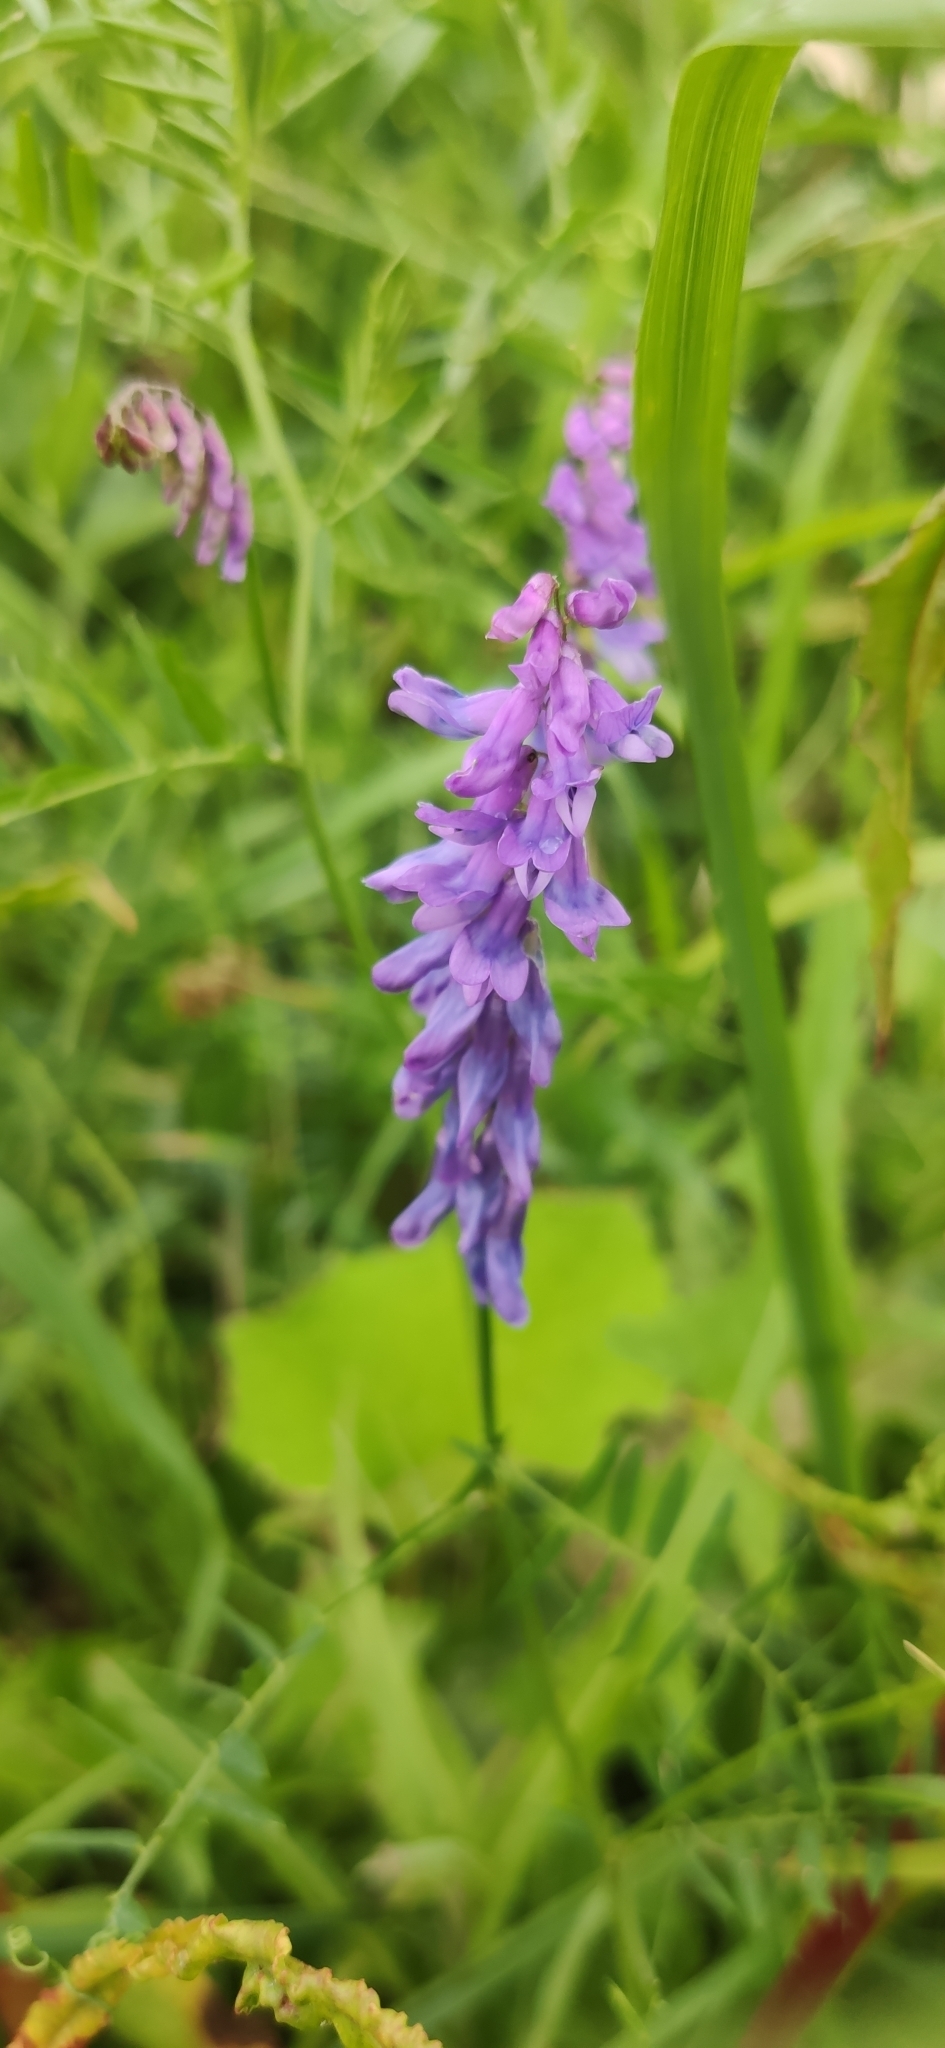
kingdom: Plantae
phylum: Tracheophyta
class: Magnoliopsida
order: Fabales
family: Fabaceae
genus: Vicia
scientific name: Vicia cracca
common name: Bird vetch
